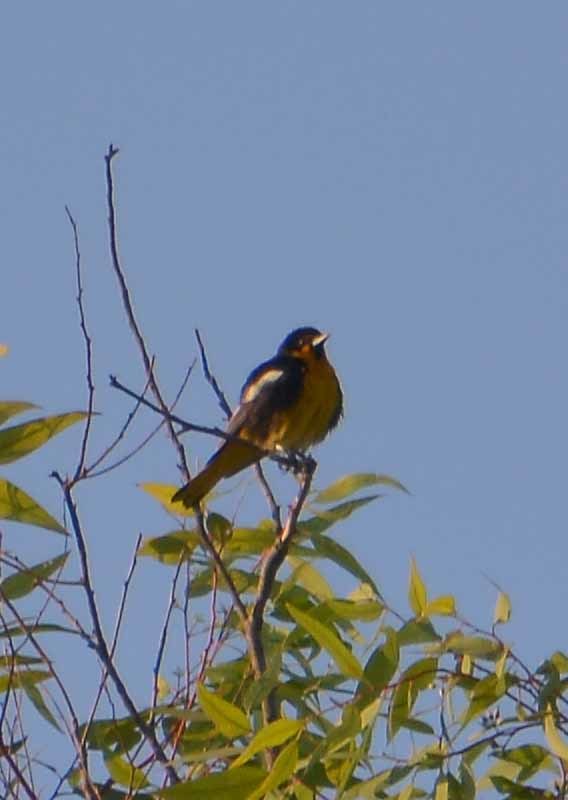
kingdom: Animalia
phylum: Chordata
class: Aves
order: Passeriformes
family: Icteridae
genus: Icterus
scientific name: Icterus abeillei
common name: Black-backed oriole
